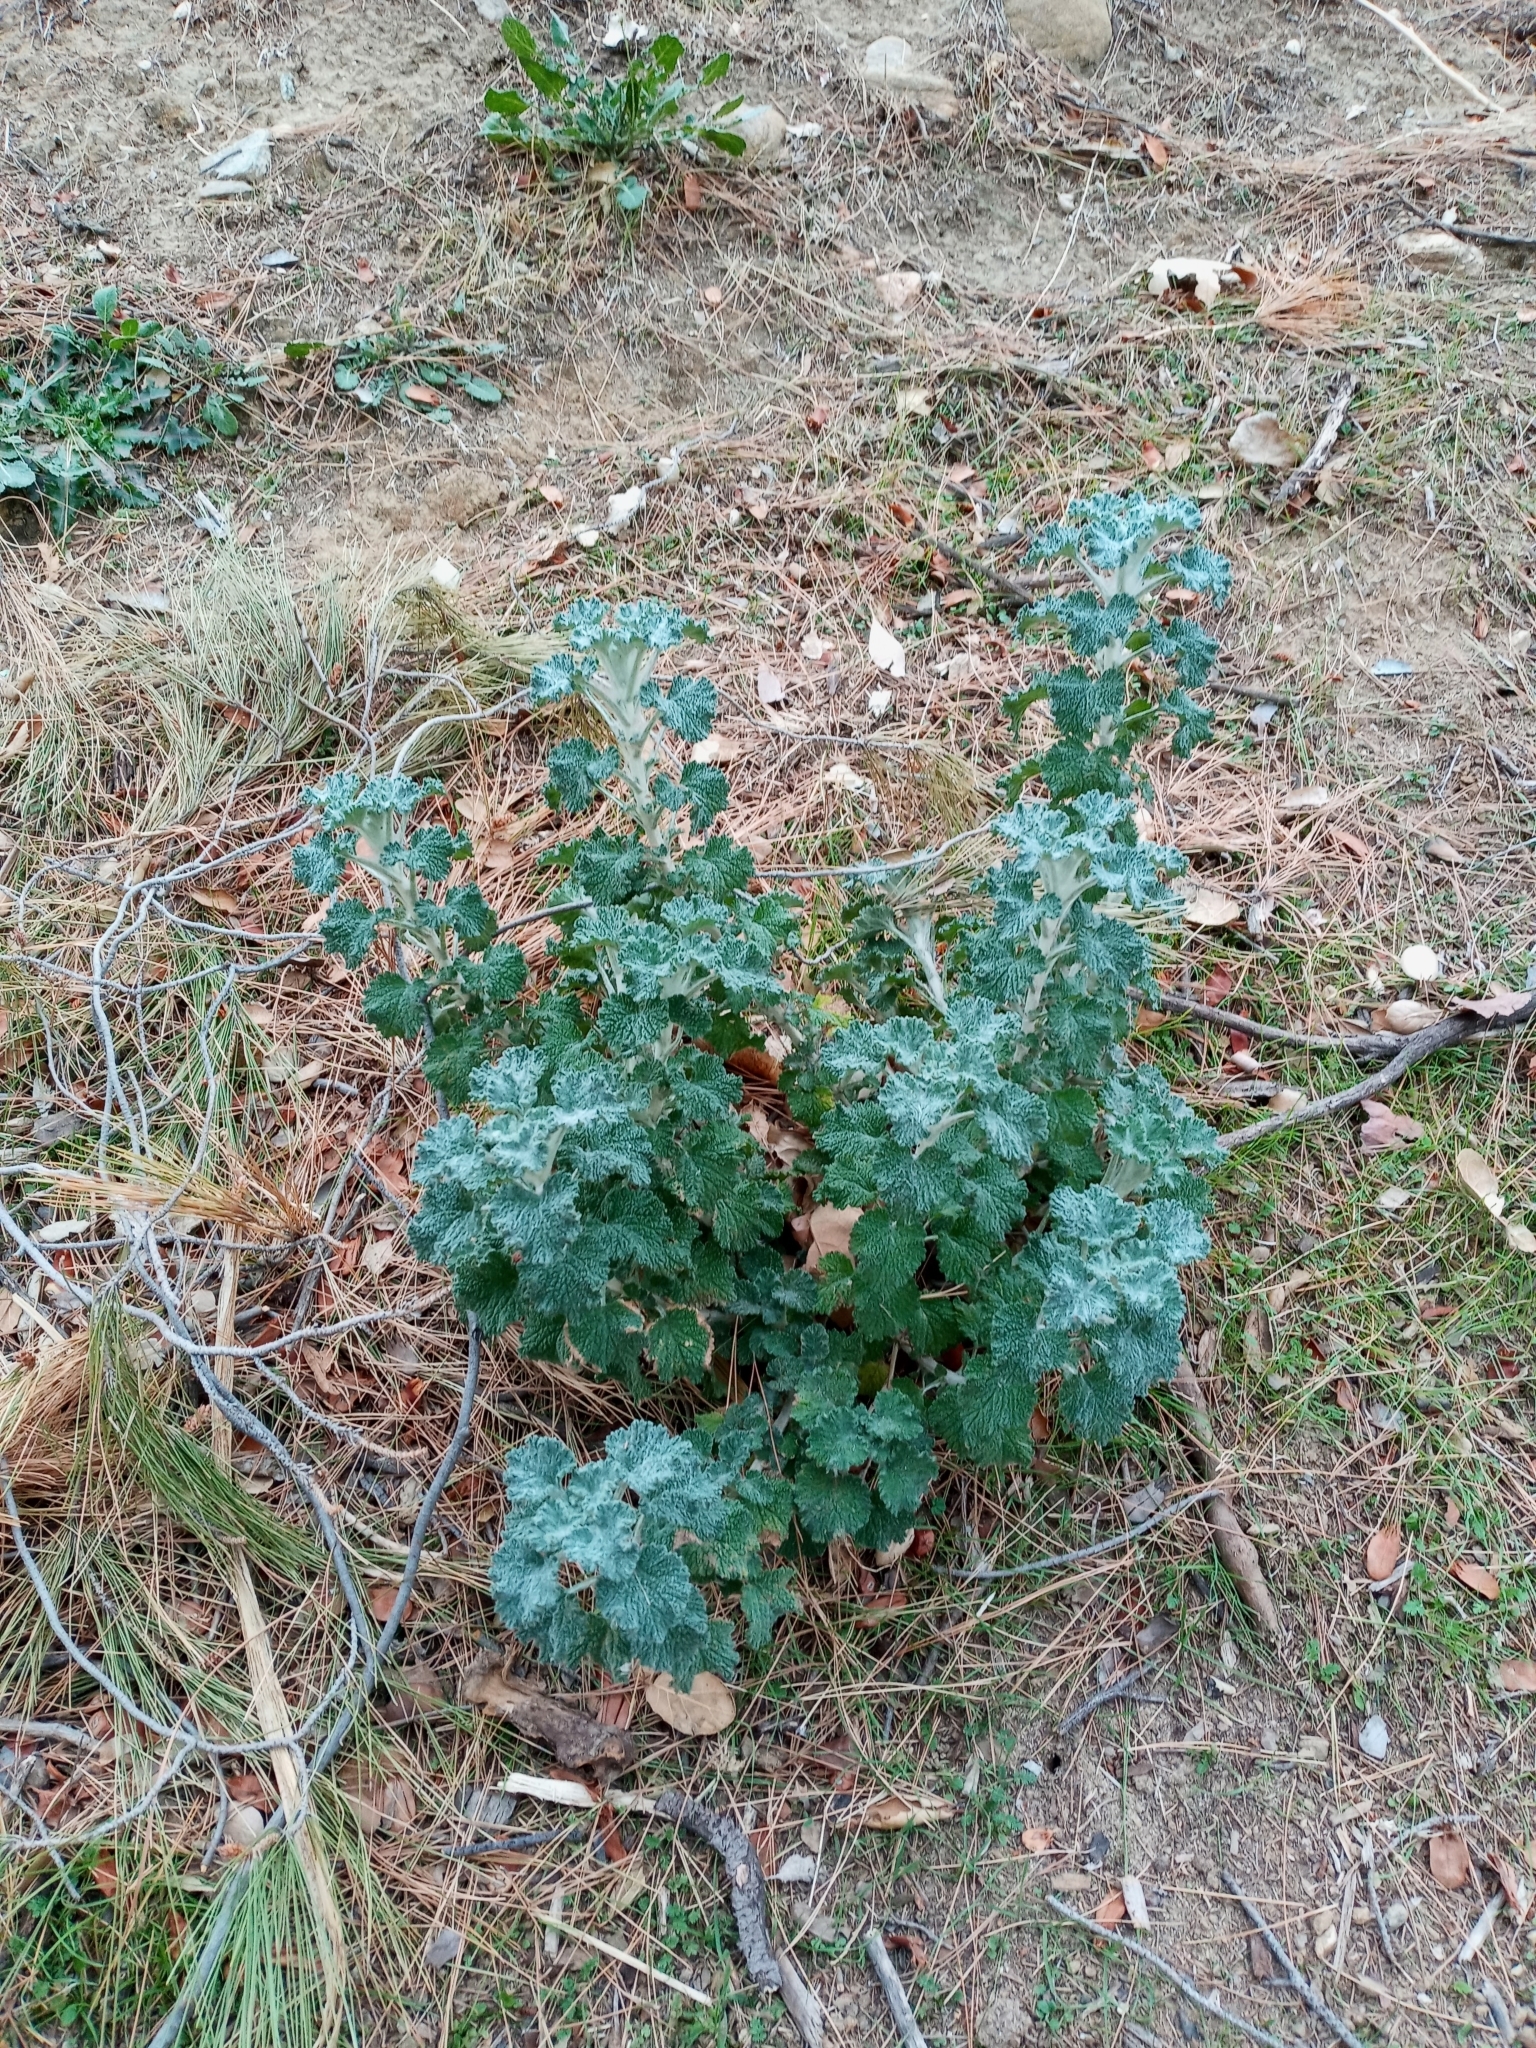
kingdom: Plantae
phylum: Tracheophyta
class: Magnoliopsida
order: Lamiales
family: Lamiaceae
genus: Marrubium
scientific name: Marrubium vulgare
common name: Horehound
